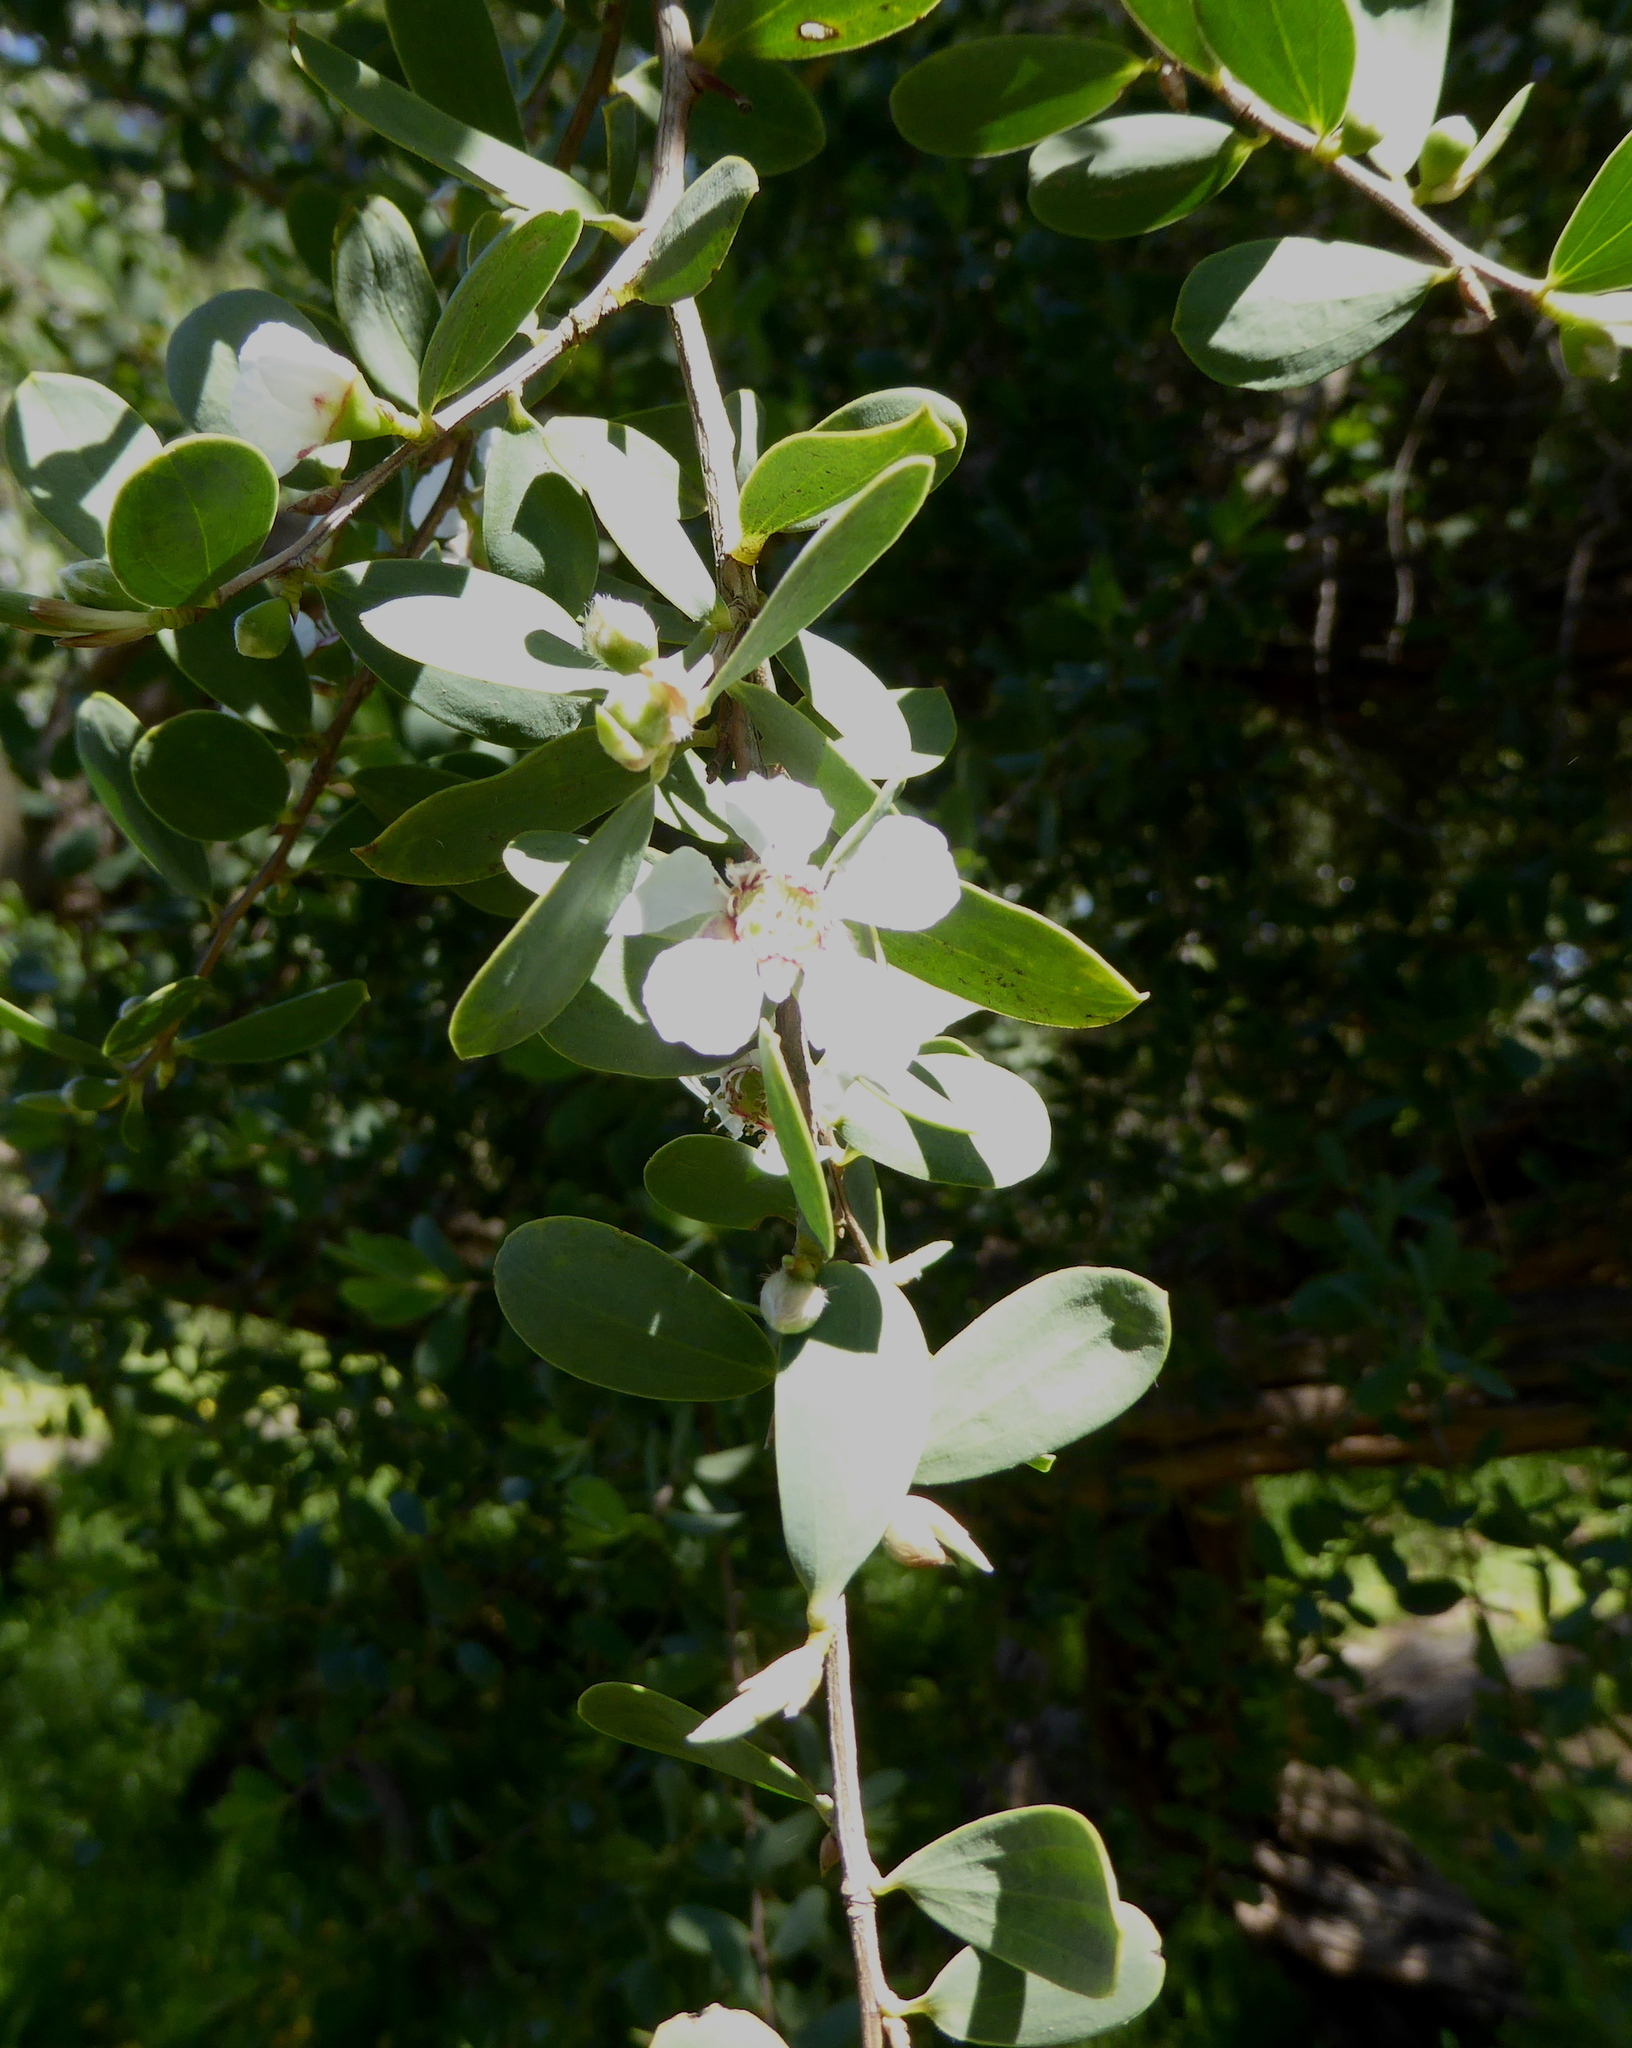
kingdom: Plantae
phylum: Tracheophyta
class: Magnoliopsida
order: Myrtales
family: Myrtaceae
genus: Leptospermum
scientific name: Leptospermum laevigatum
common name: Australian teatree
